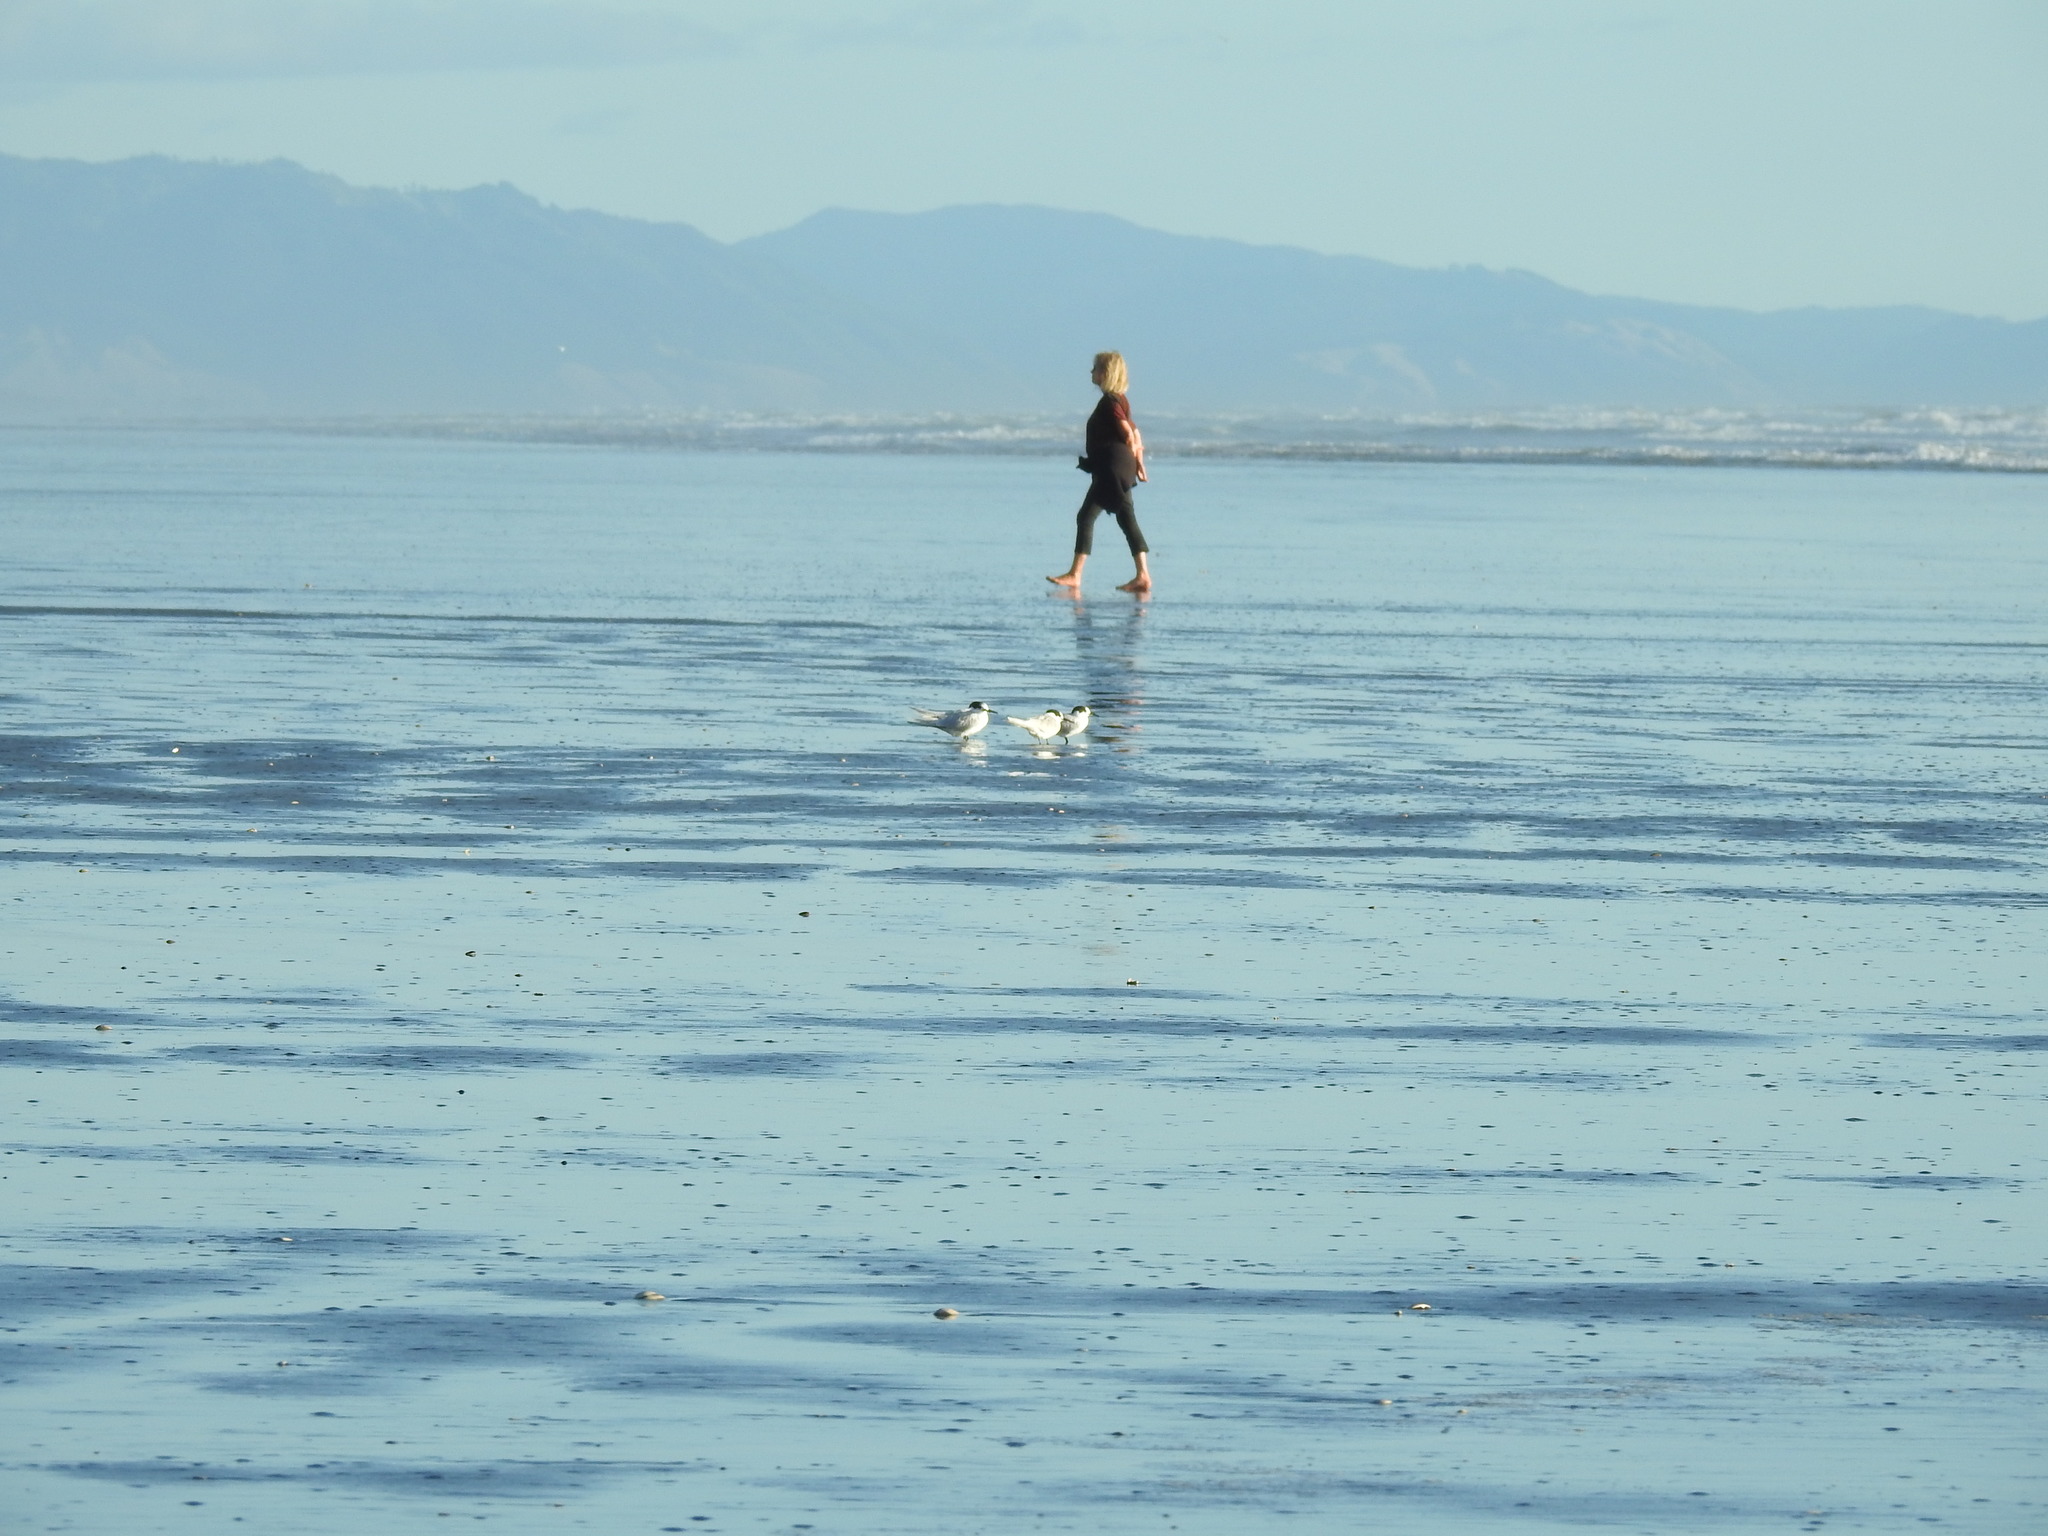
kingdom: Animalia
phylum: Chordata
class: Aves
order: Charadriiformes
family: Laridae
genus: Sterna
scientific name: Sterna striata
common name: White-fronted tern
